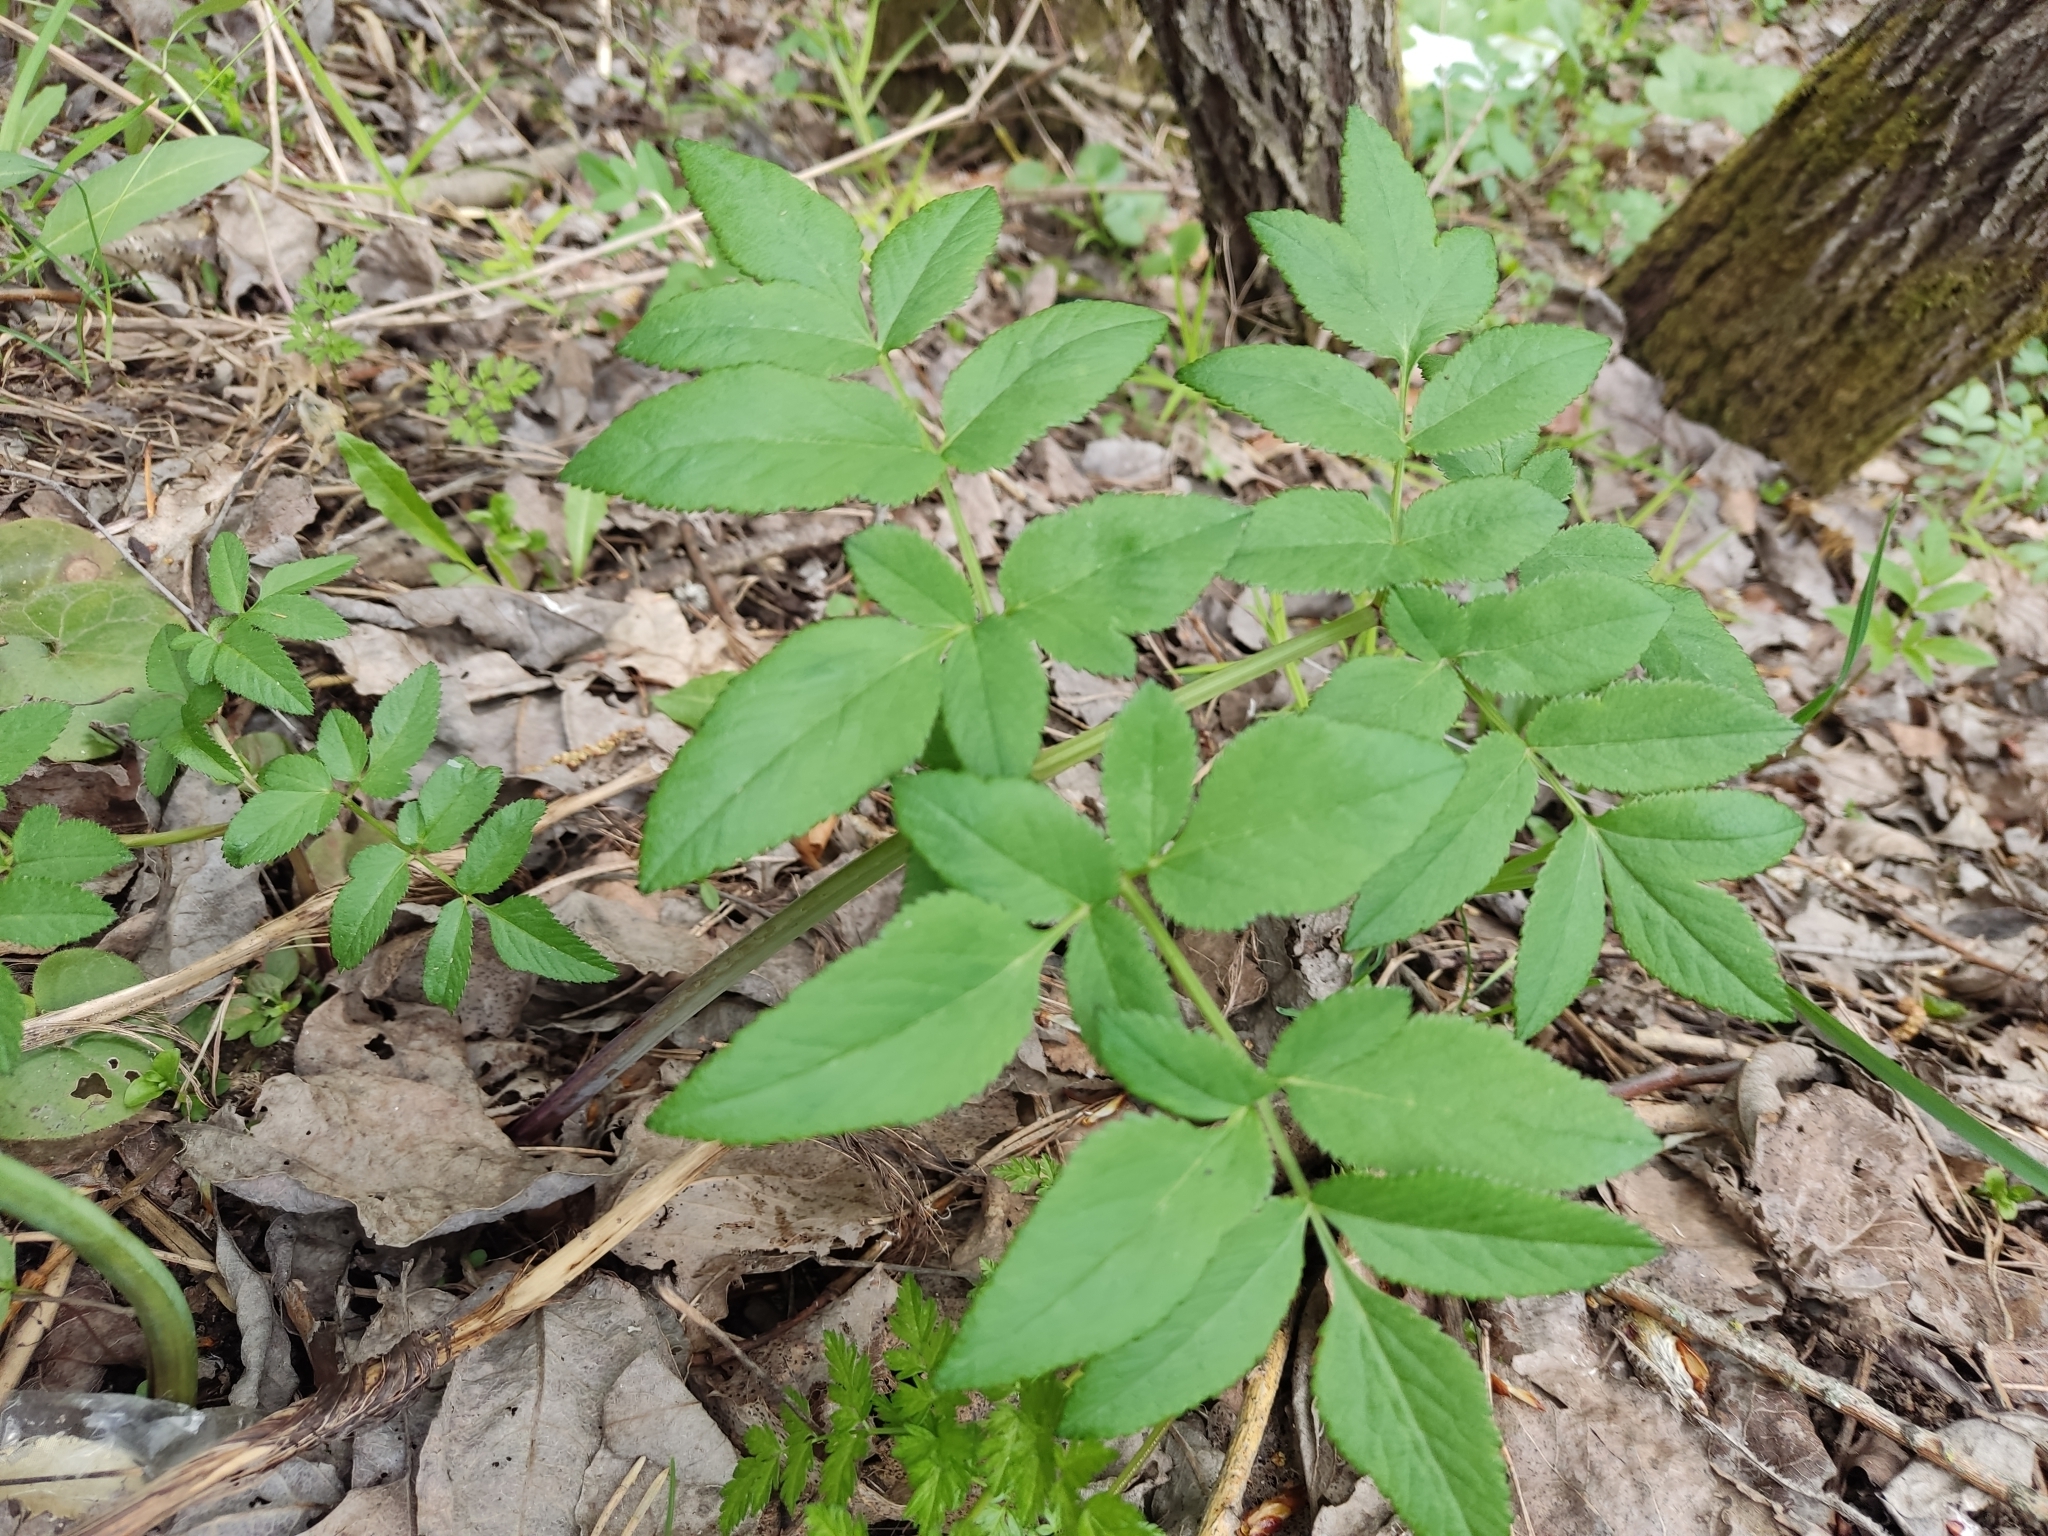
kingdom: Plantae
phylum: Tracheophyta
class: Magnoliopsida
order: Apiales
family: Apiaceae
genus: Angelica
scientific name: Angelica sylvestris
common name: Wild angelica
